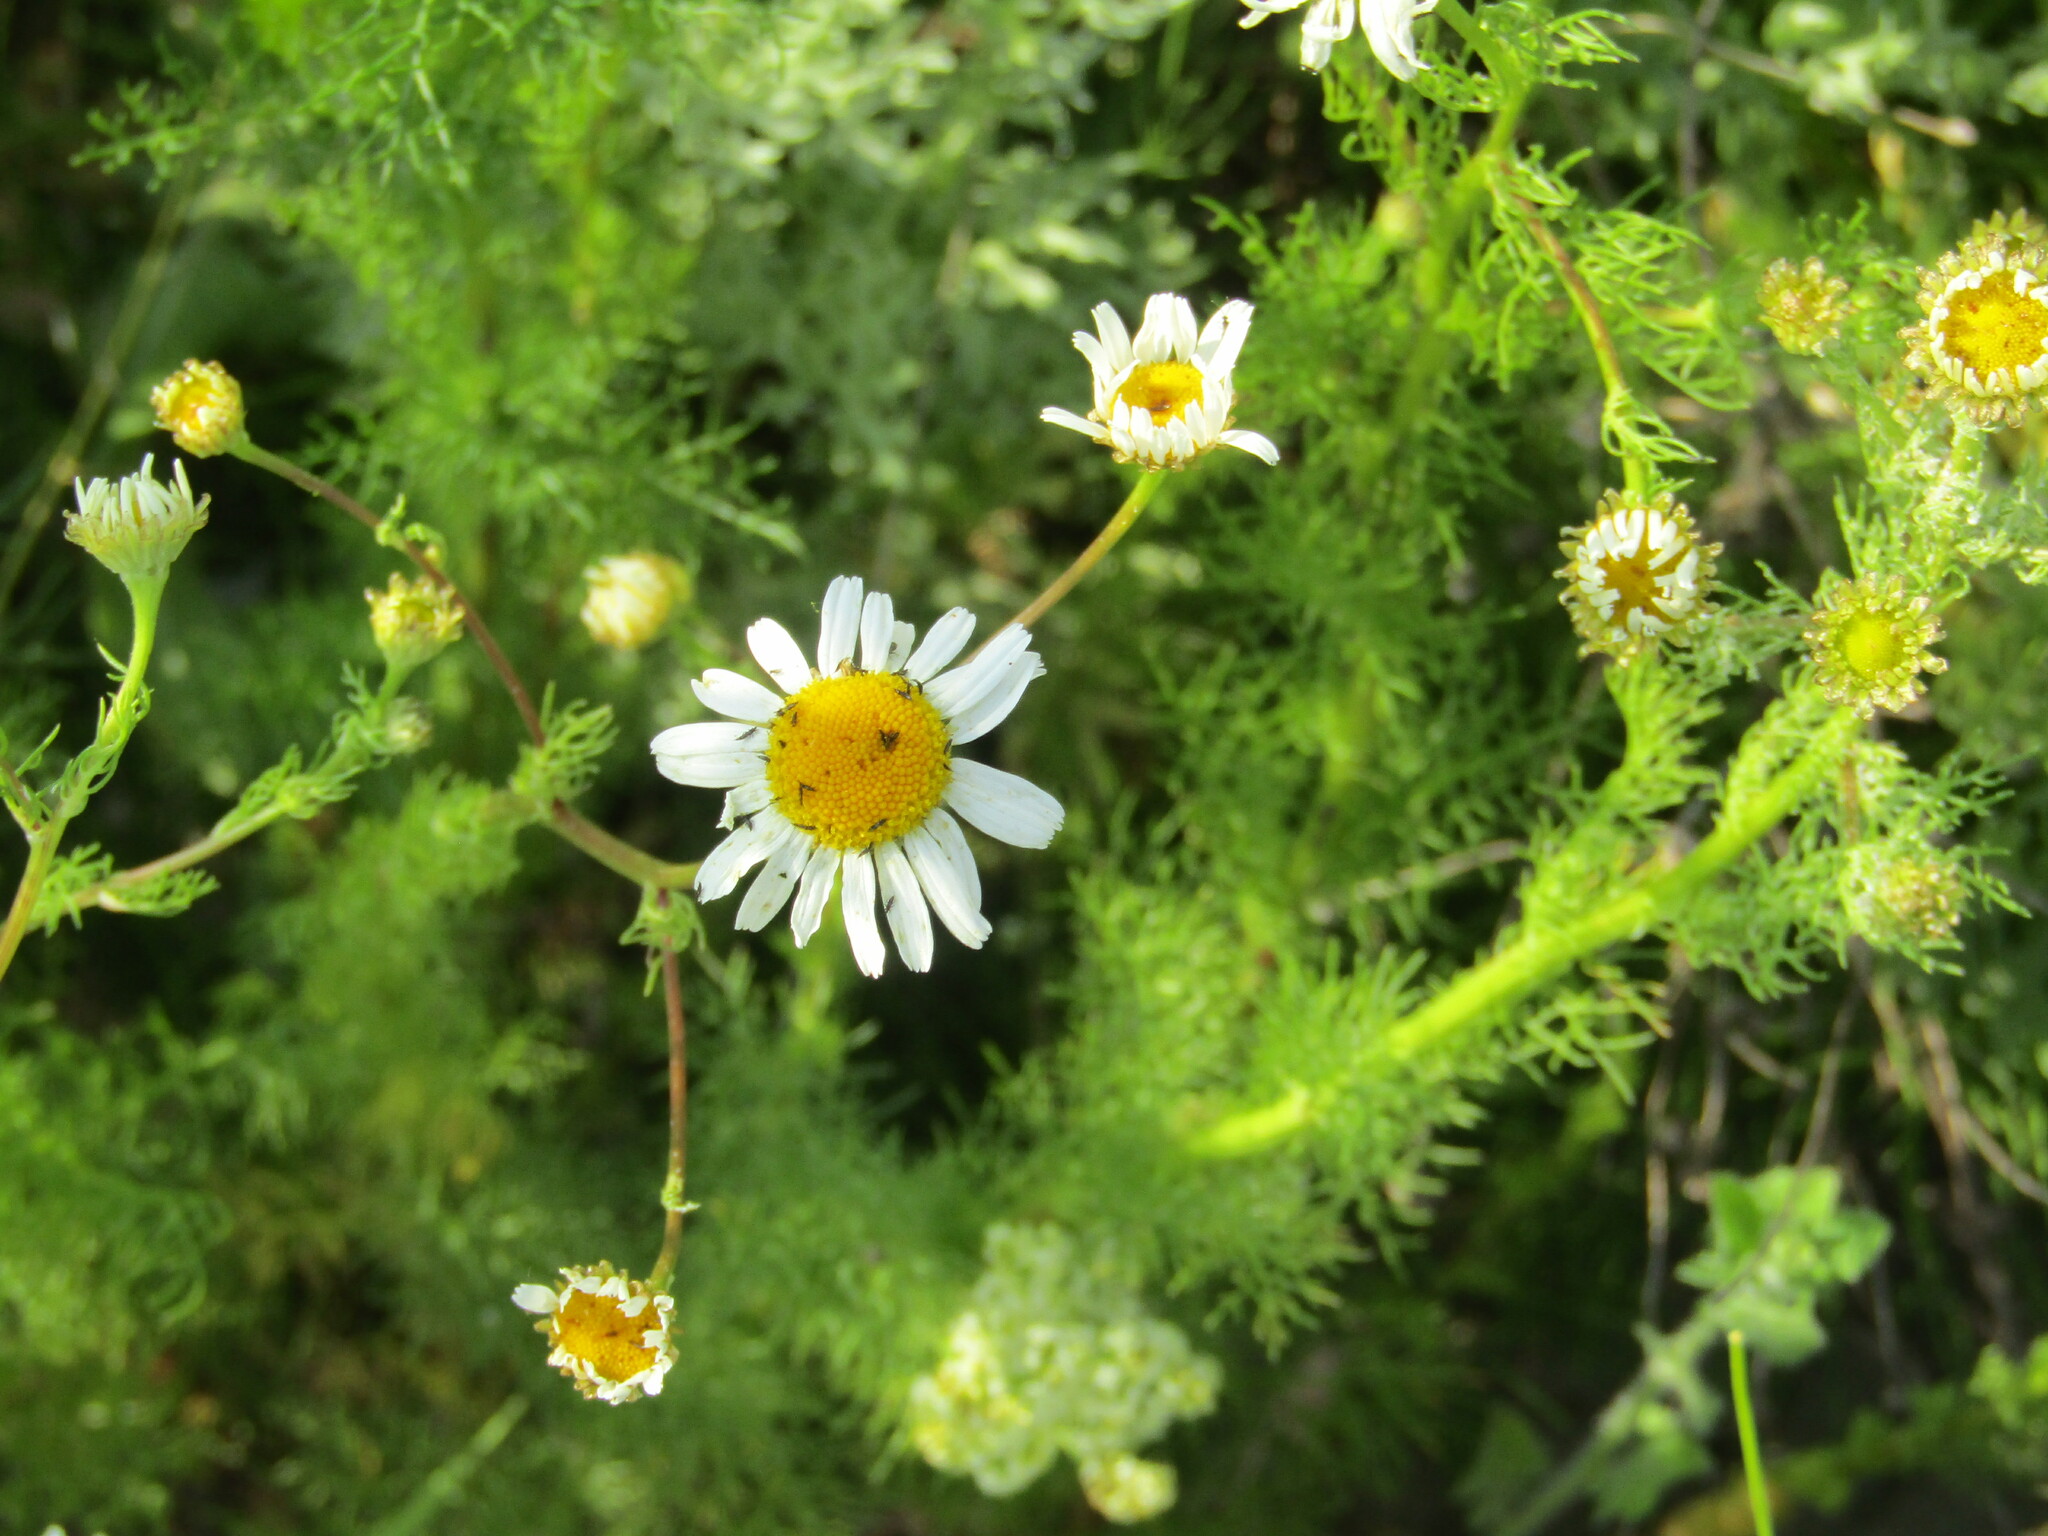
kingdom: Plantae
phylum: Tracheophyta
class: Magnoliopsida
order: Asterales
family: Asteraceae
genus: Tripleurospermum
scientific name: Tripleurospermum inodorum
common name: Scentless mayweed
